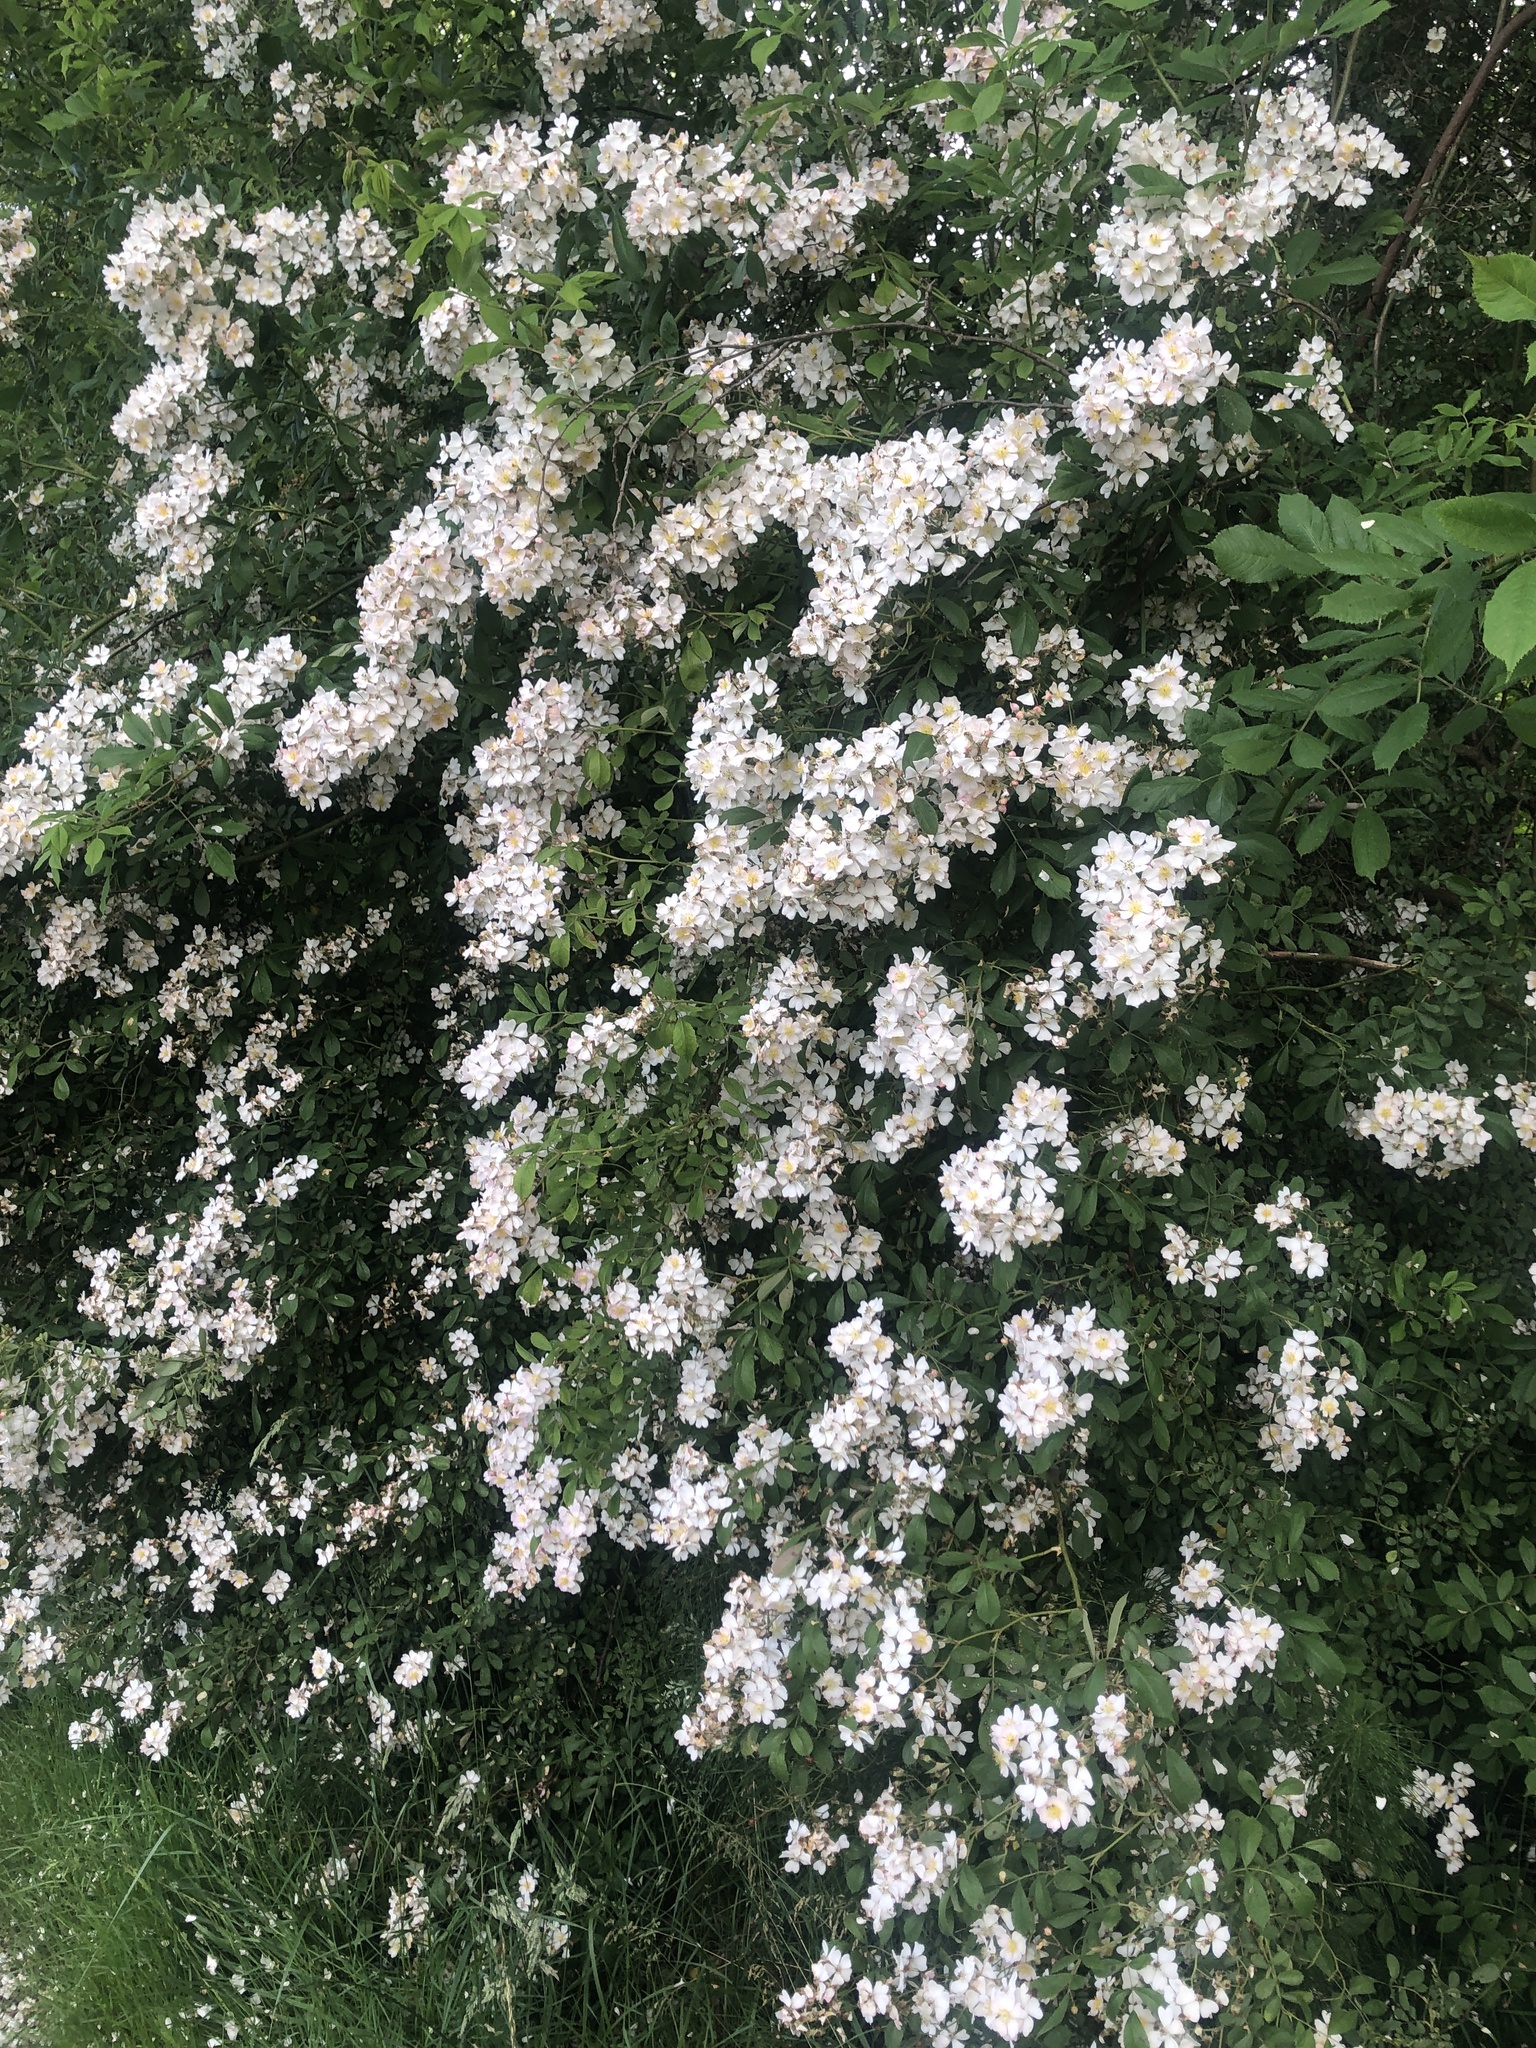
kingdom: Plantae
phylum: Tracheophyta
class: Magnoliopsida
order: Rosales
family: Rosaceae
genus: Rosa
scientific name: Rosa multiflora
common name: Multiflora rose
